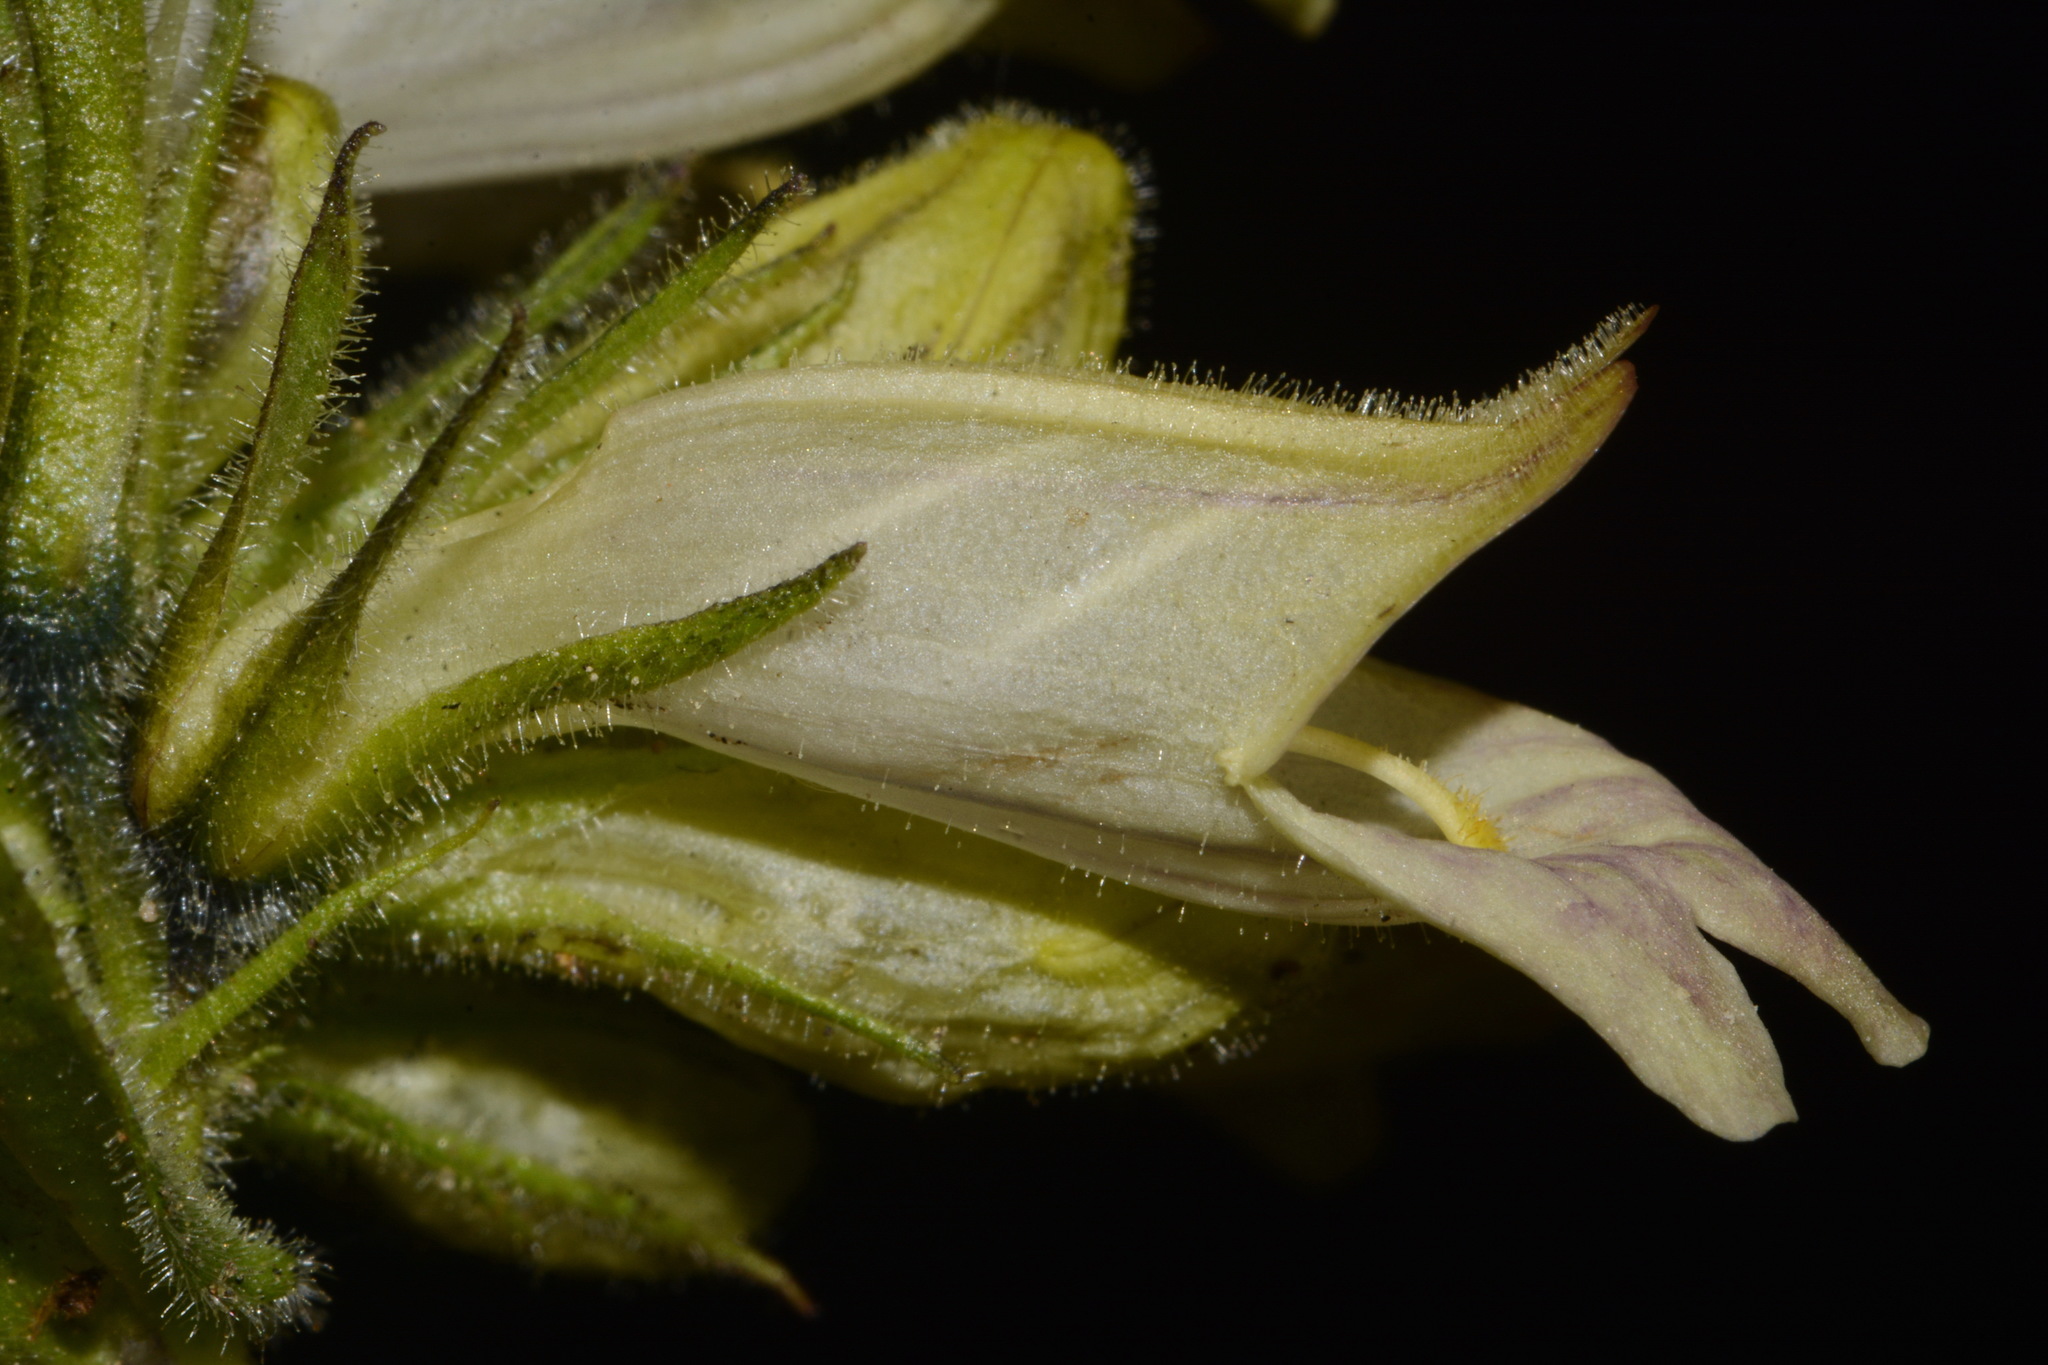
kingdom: Plantae
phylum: Tracheophyta
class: Magnoliopsida
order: Lamiales
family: Plantaginaceae
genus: Penstemon
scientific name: Penstemon whippleanus
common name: Whipple's penstemon
